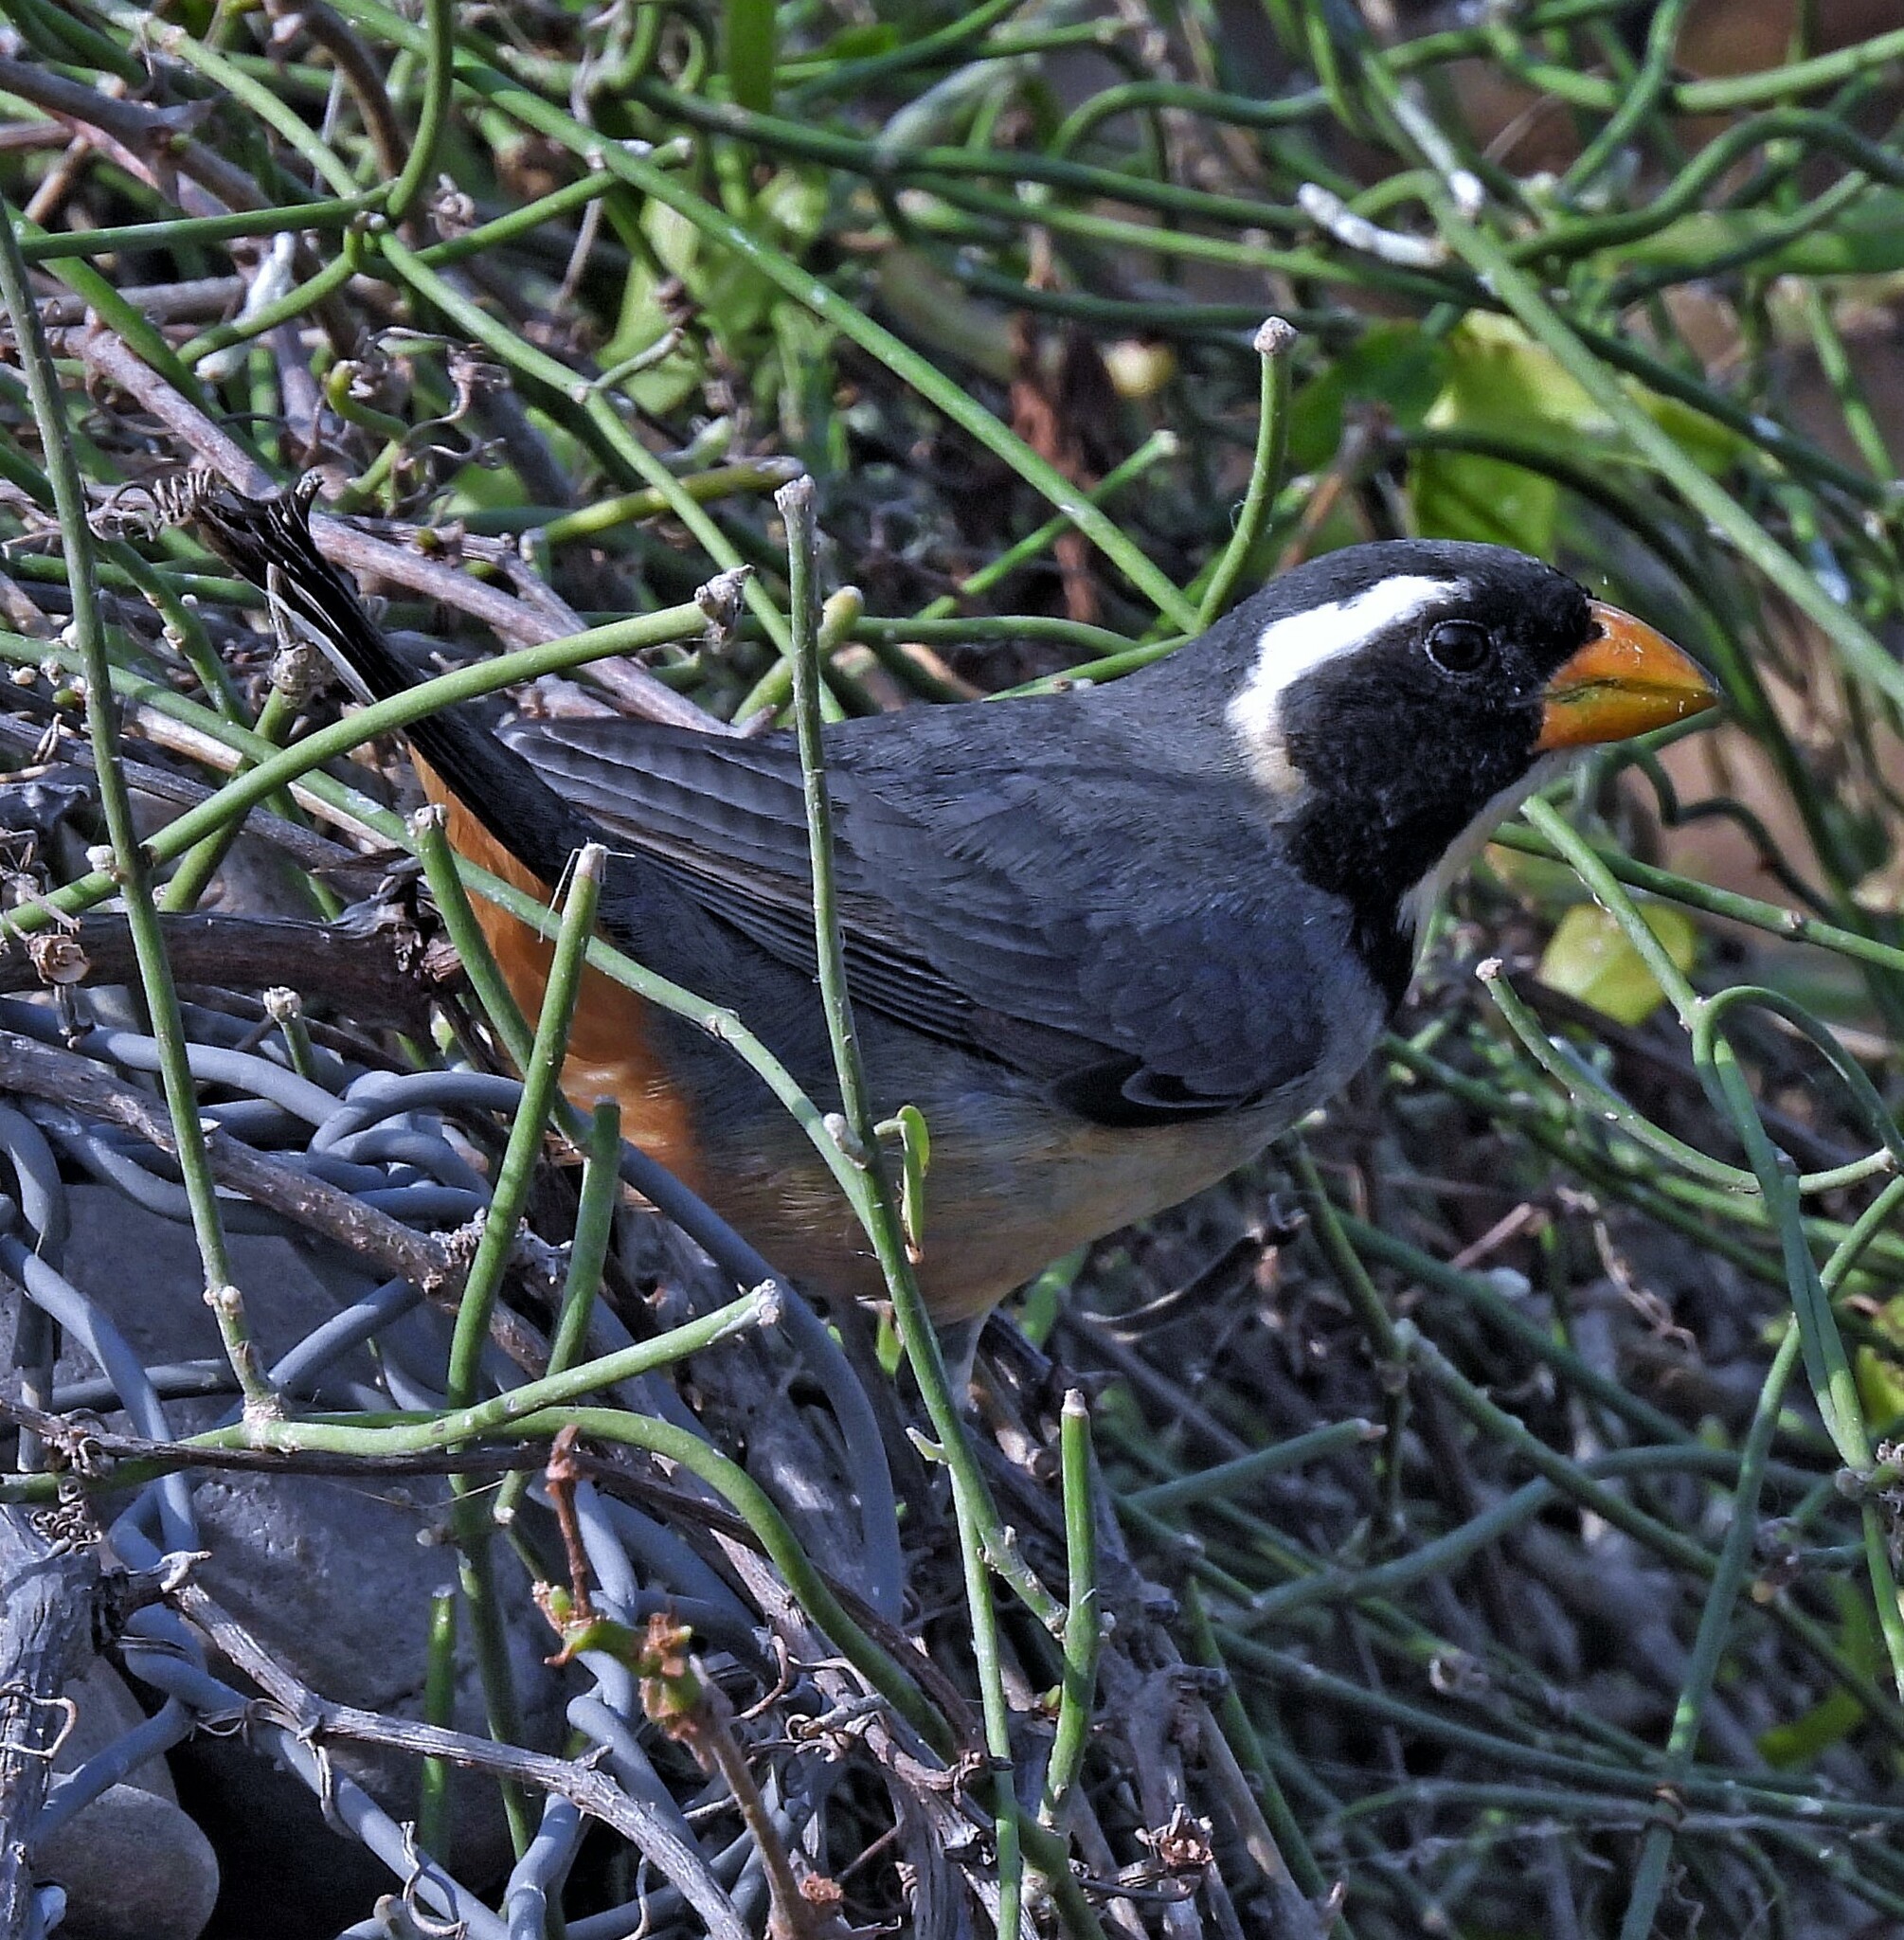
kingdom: Animalia
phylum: Chordata
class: Aves
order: Passeriformes
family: Thraupidae
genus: Saltator
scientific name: Saltator aurantiirostris
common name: Golden-billed saltator
